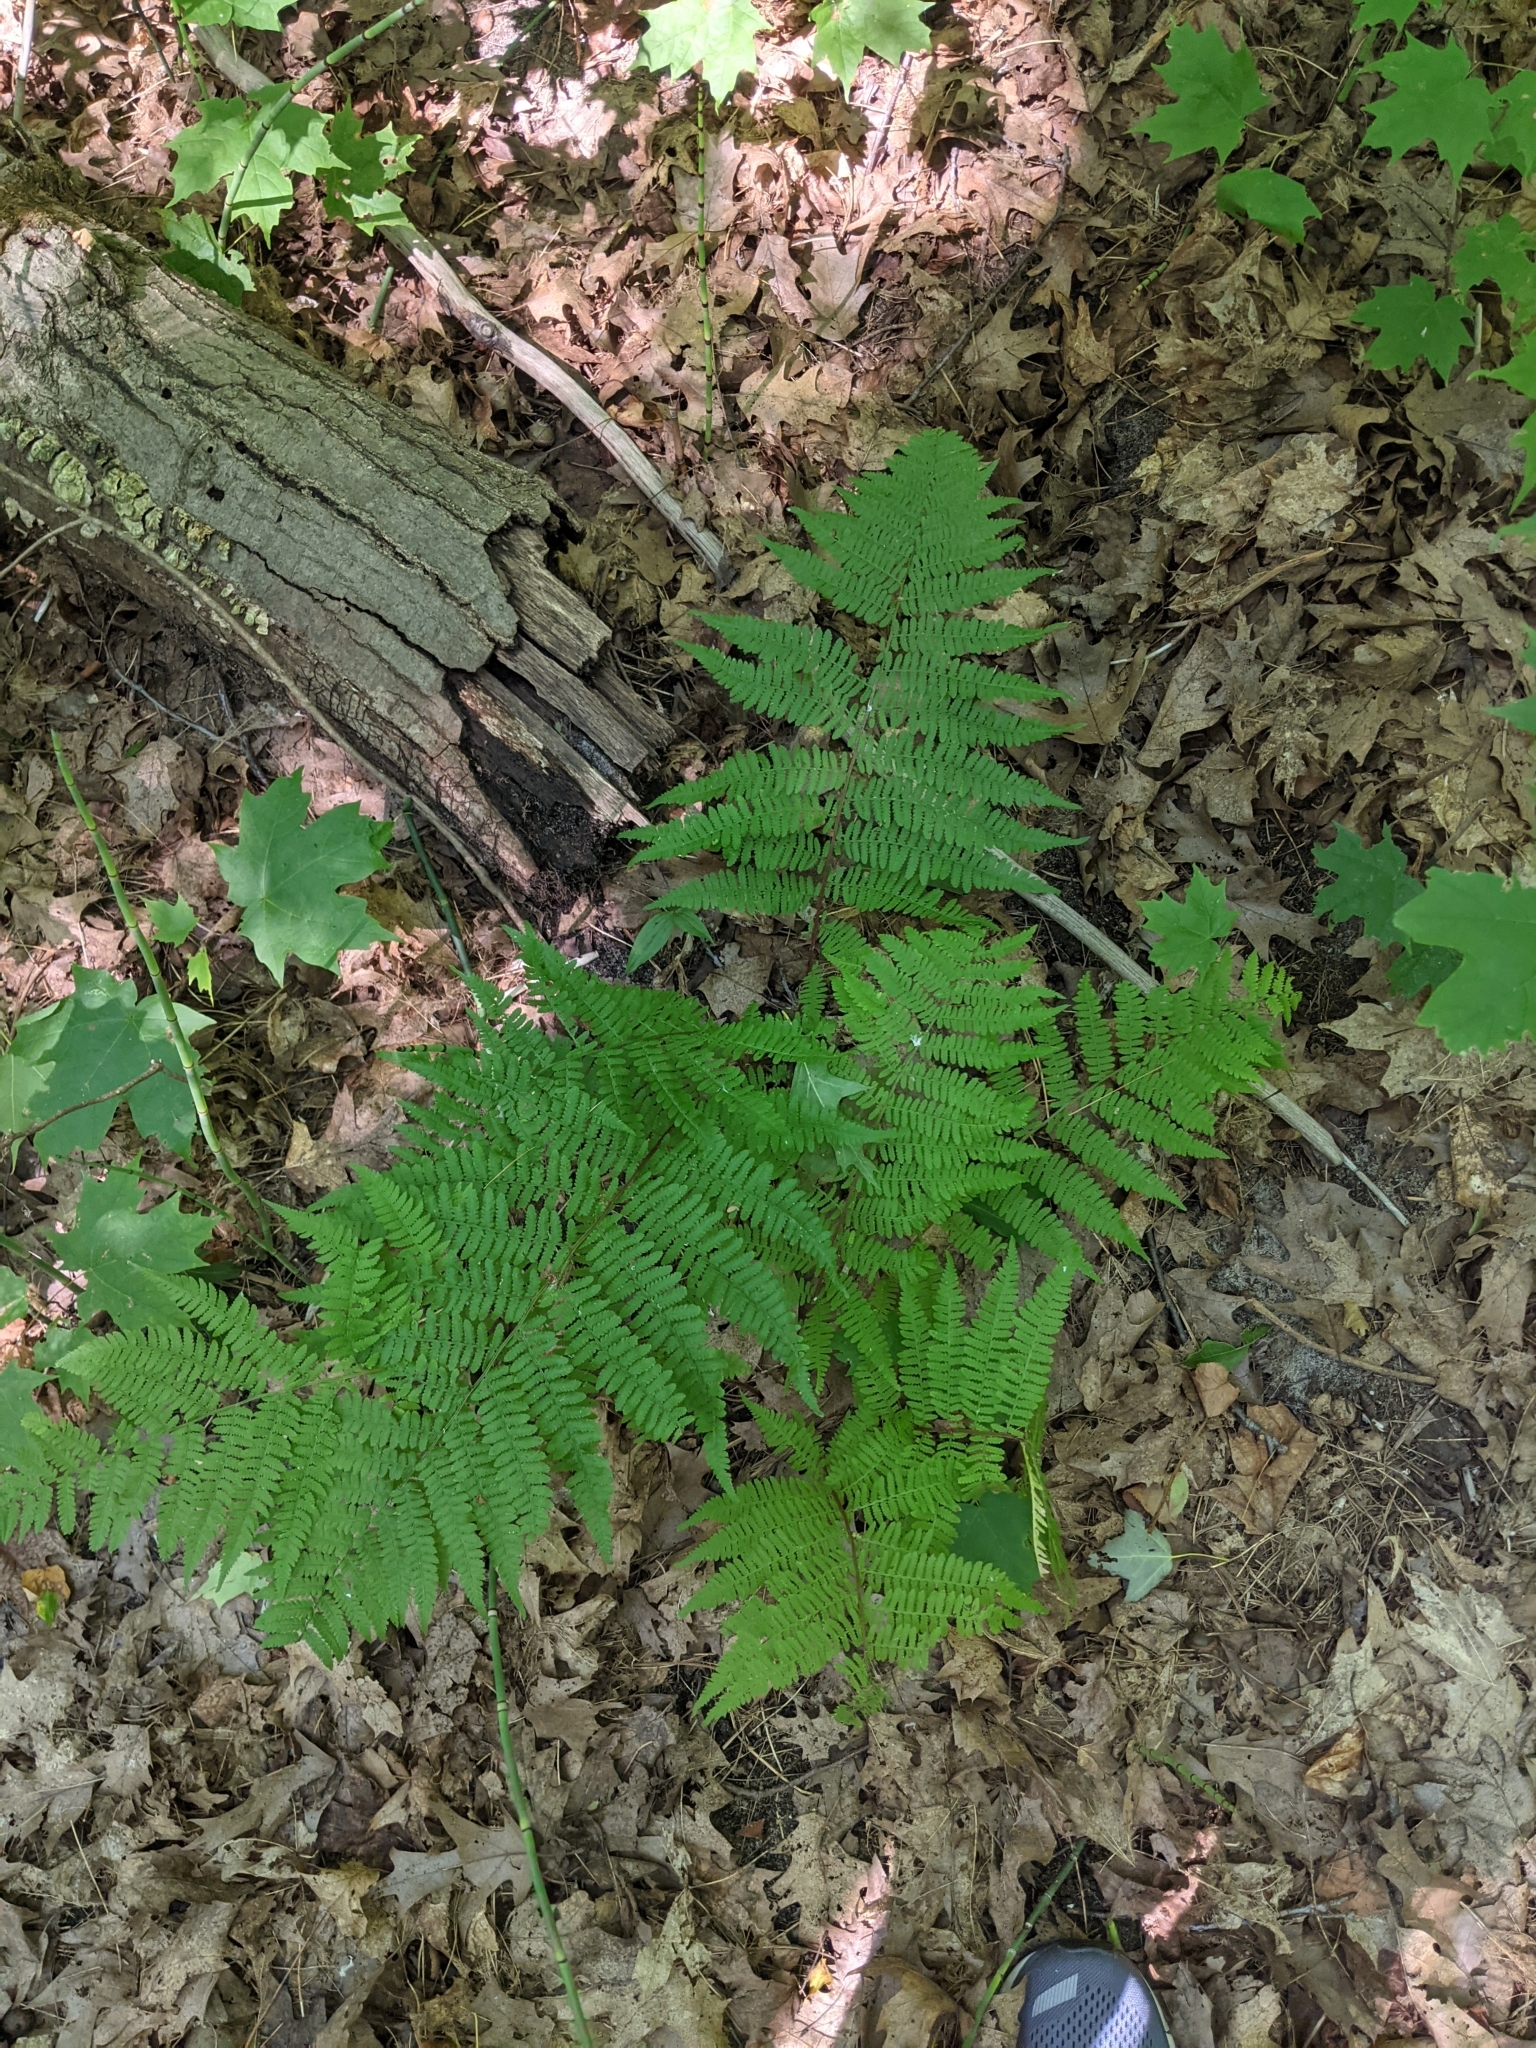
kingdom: Plantae
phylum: Tracheophyta
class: Polypodiopsida
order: Polypodiales
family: Athyriaceae
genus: Athyrium
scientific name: Athyrium angustum
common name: Northern lady fern
